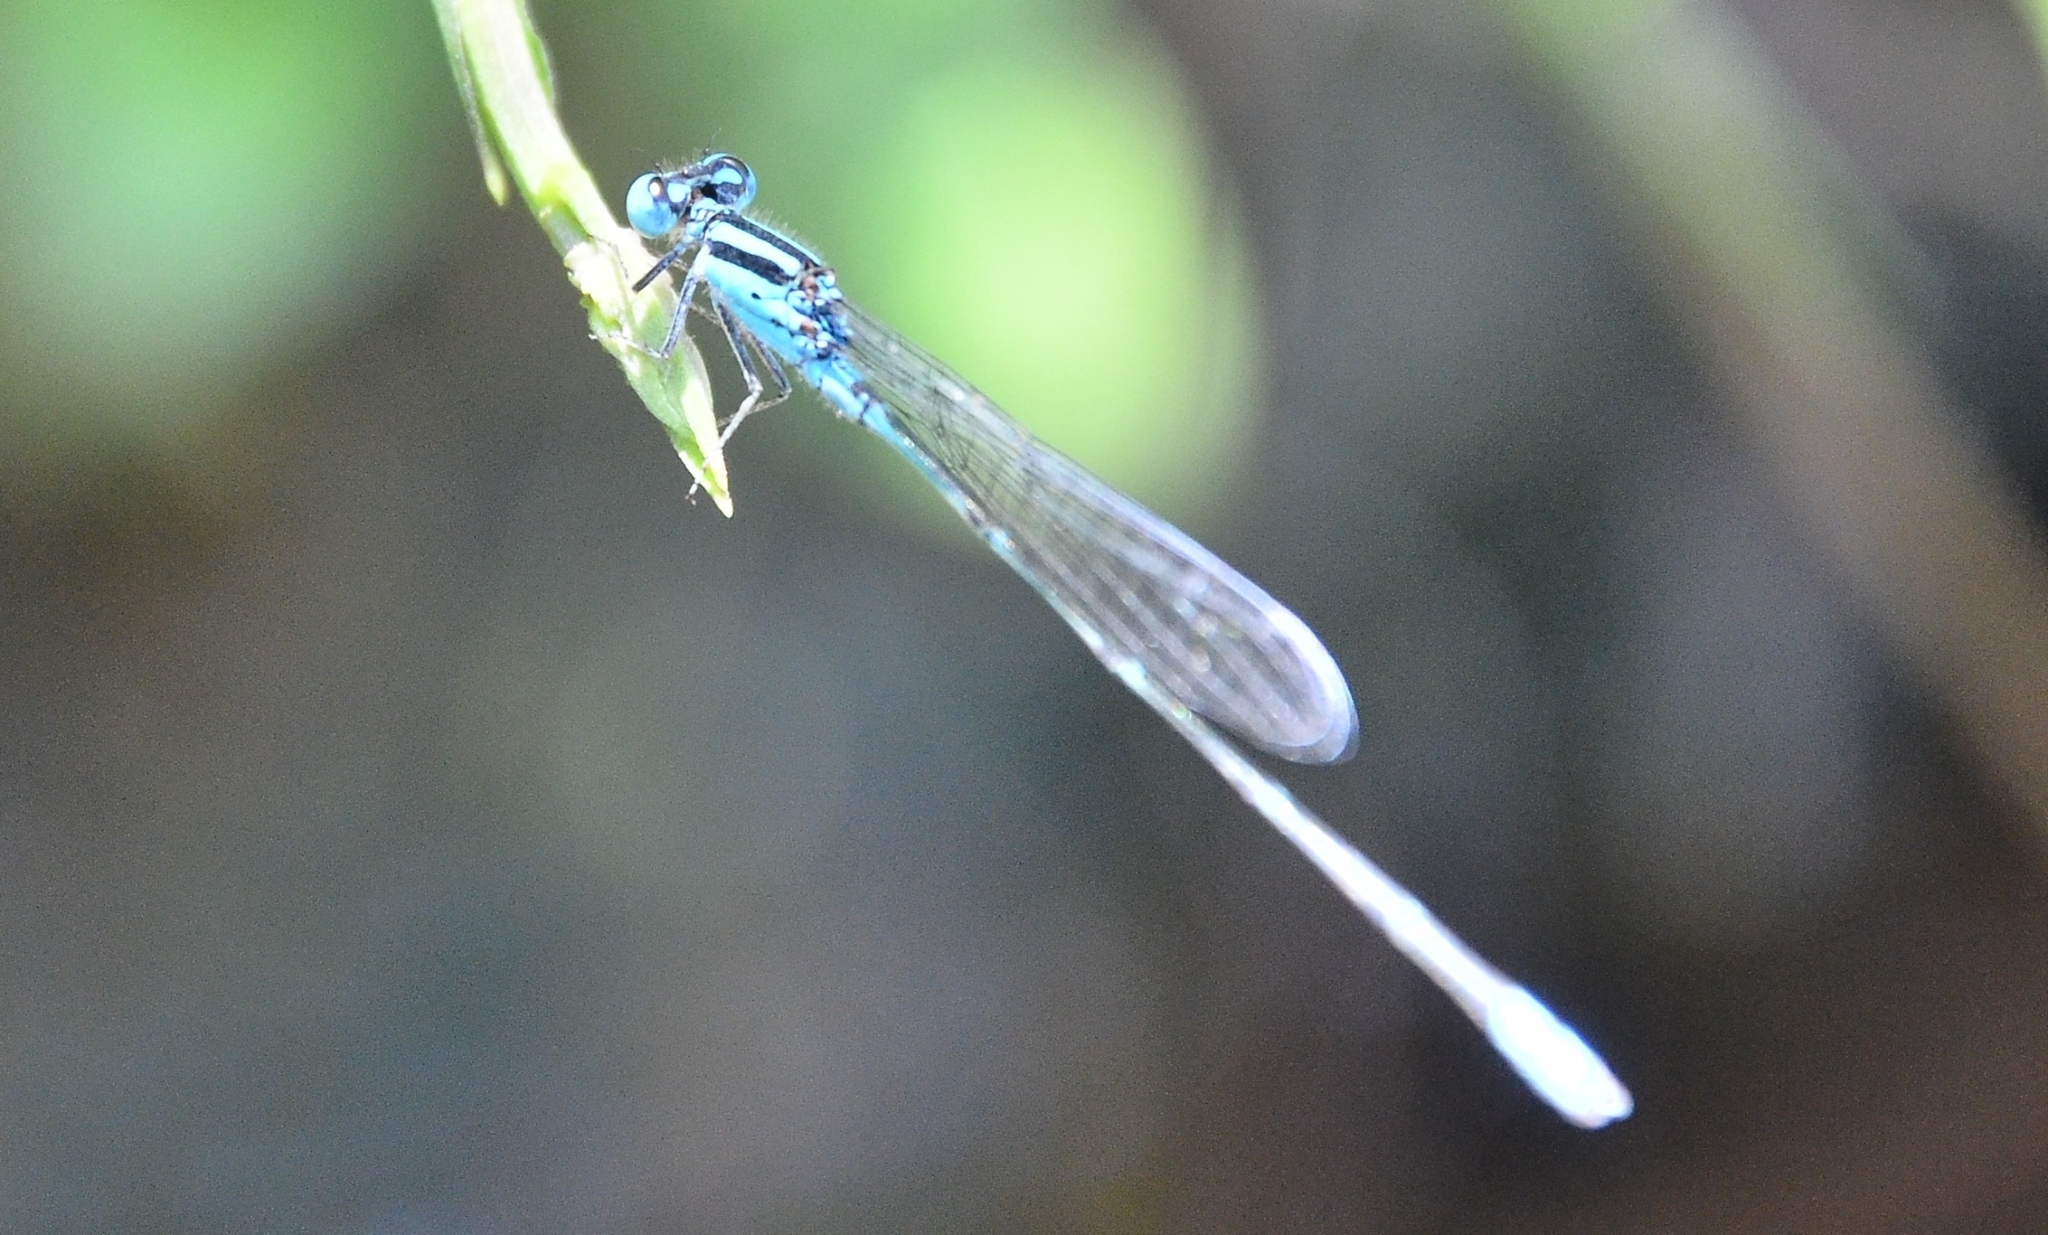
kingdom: Animalia
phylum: Arthropoda
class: Insecta
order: Odonata
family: Coenagrionidae
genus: Pseudagrion
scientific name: Pseudagrion microcephalum
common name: Blue riverdamsel
